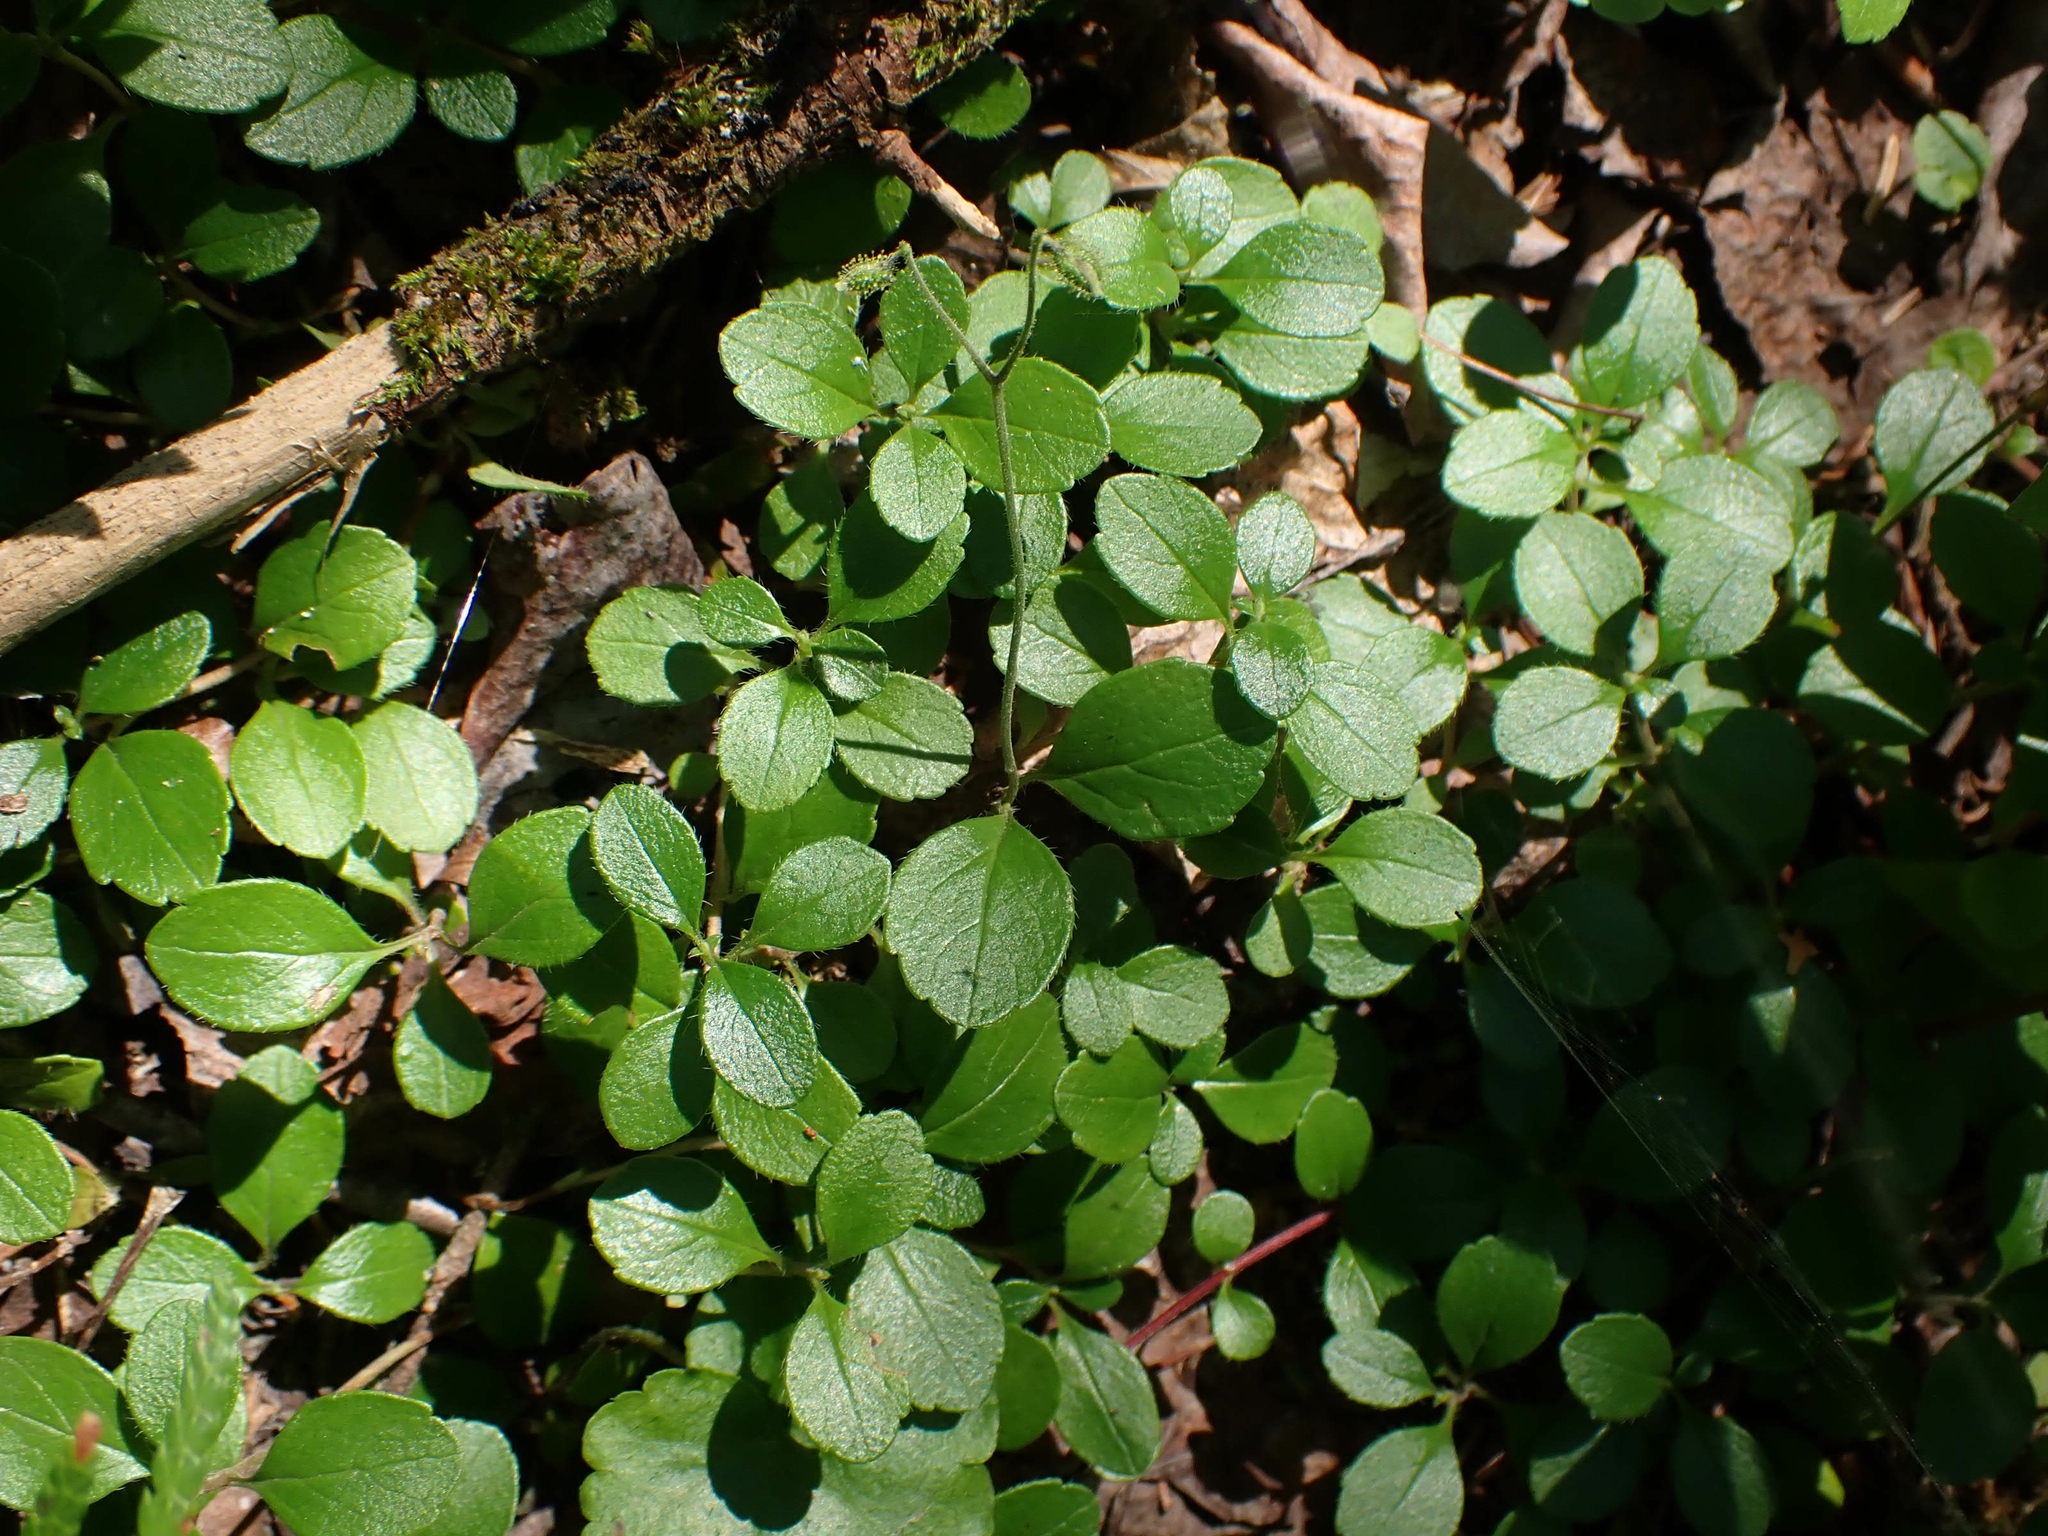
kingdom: Plantae
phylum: Tracheophyta
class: Magnoliopsida
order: Dipsacales
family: Caprifoliaceae
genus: Linnaea
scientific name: Linnaea borealis
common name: Twinflower
